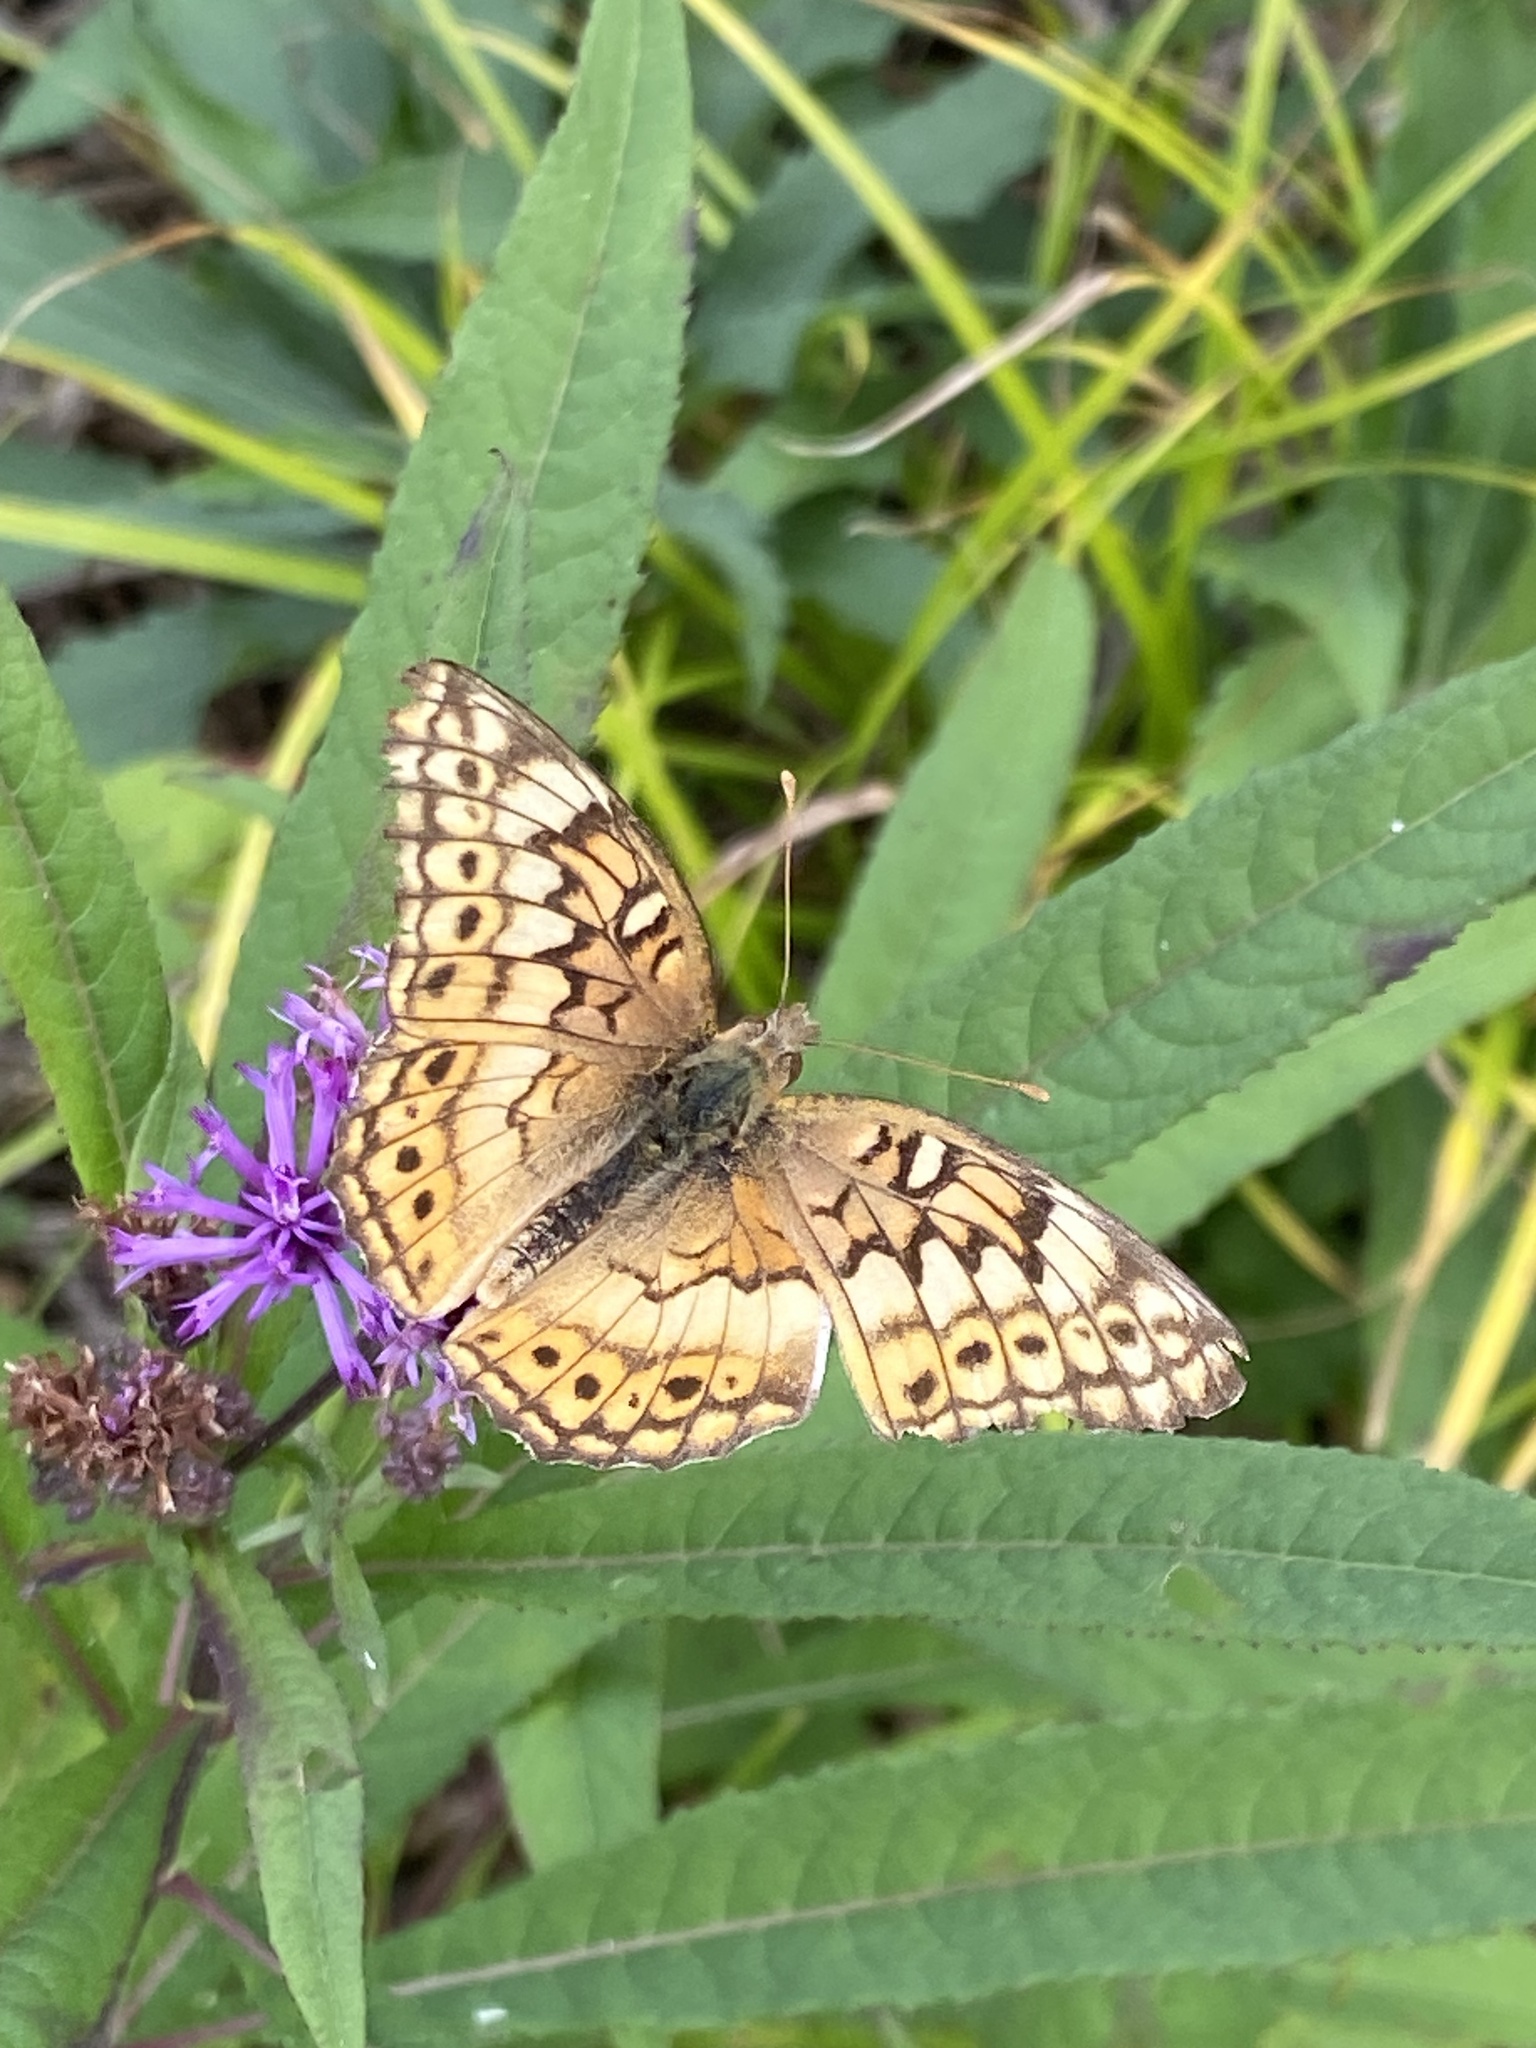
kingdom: Animalia
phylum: Arthropoda
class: Insecta
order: Lepidoptera
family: Nymphalidae
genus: Euptoieta
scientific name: Euptoieta claudia
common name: Variegated fritillary
